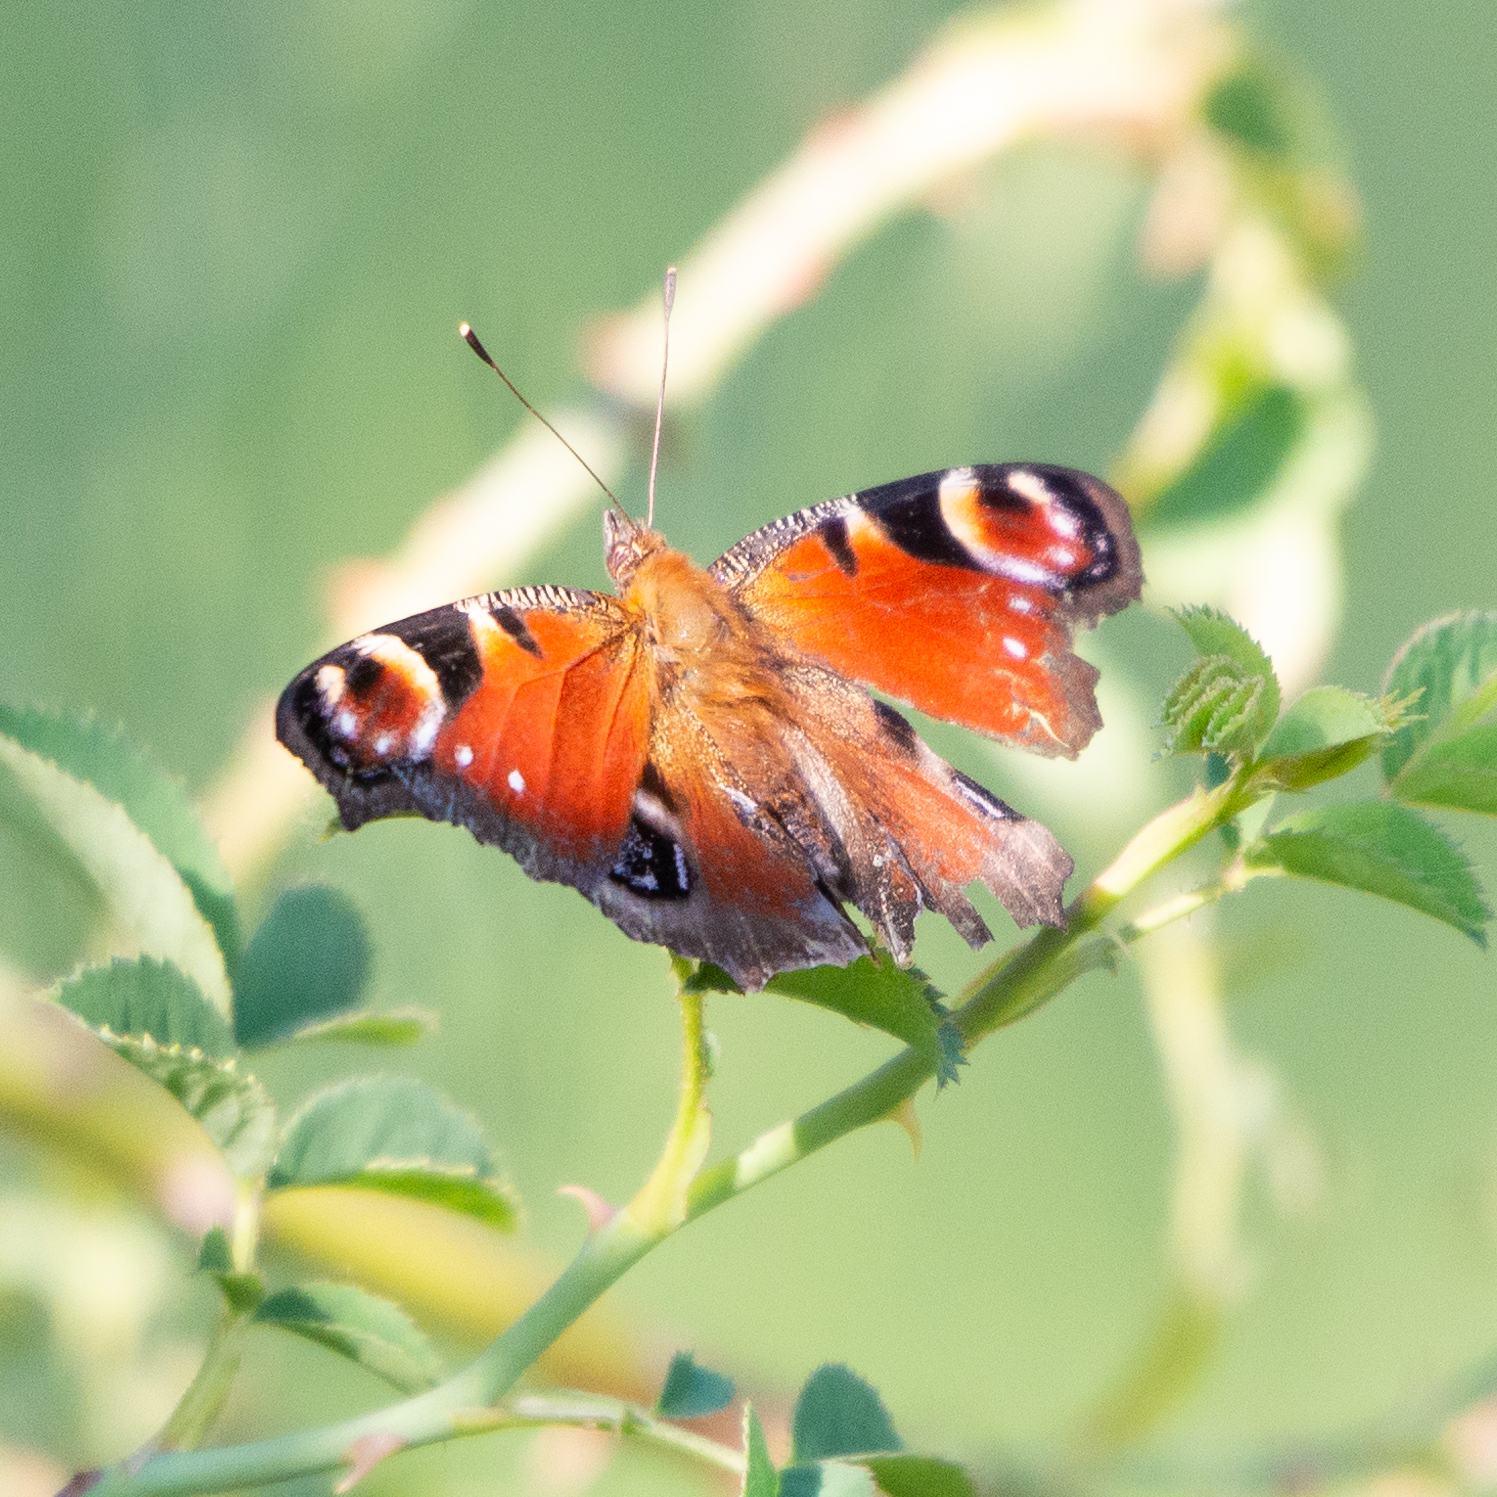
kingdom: Animalia
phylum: Arthropoda
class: Insecta
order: Lepidoptera
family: Nymphalidae
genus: Aglais
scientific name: Aglais io
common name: Peacock
